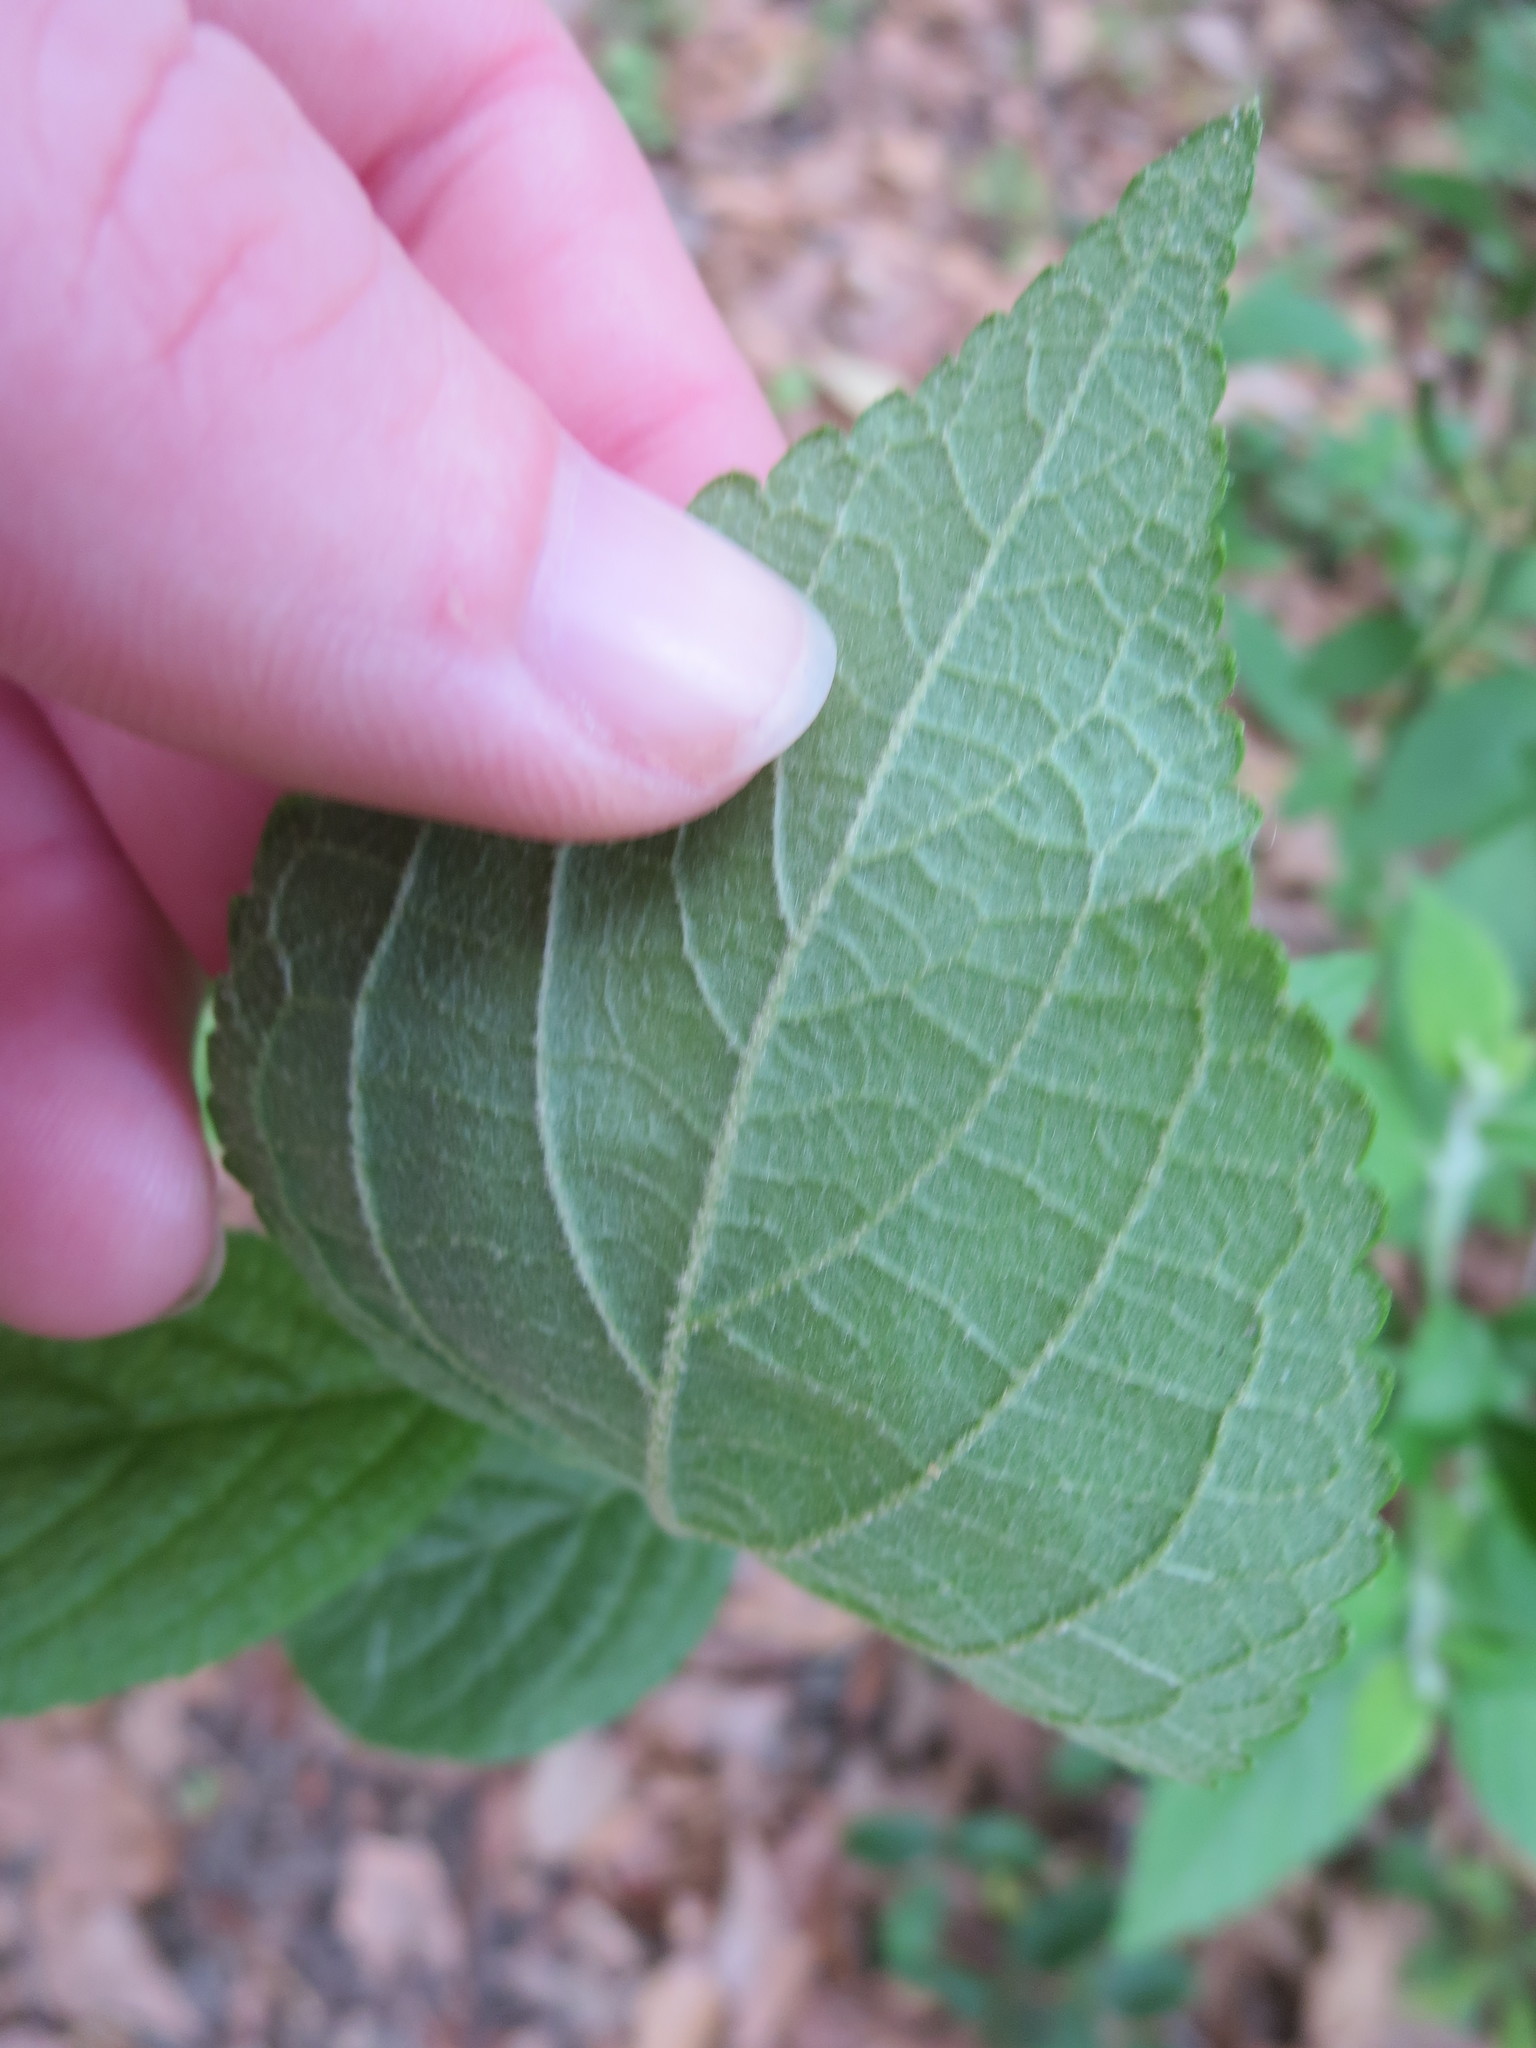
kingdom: Plantae
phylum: Tracheophyta
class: Magnoliopsida
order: Lamiales
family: Lamiaceae
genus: Callicarpa
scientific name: Callicarpa americana
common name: American beautyberry
